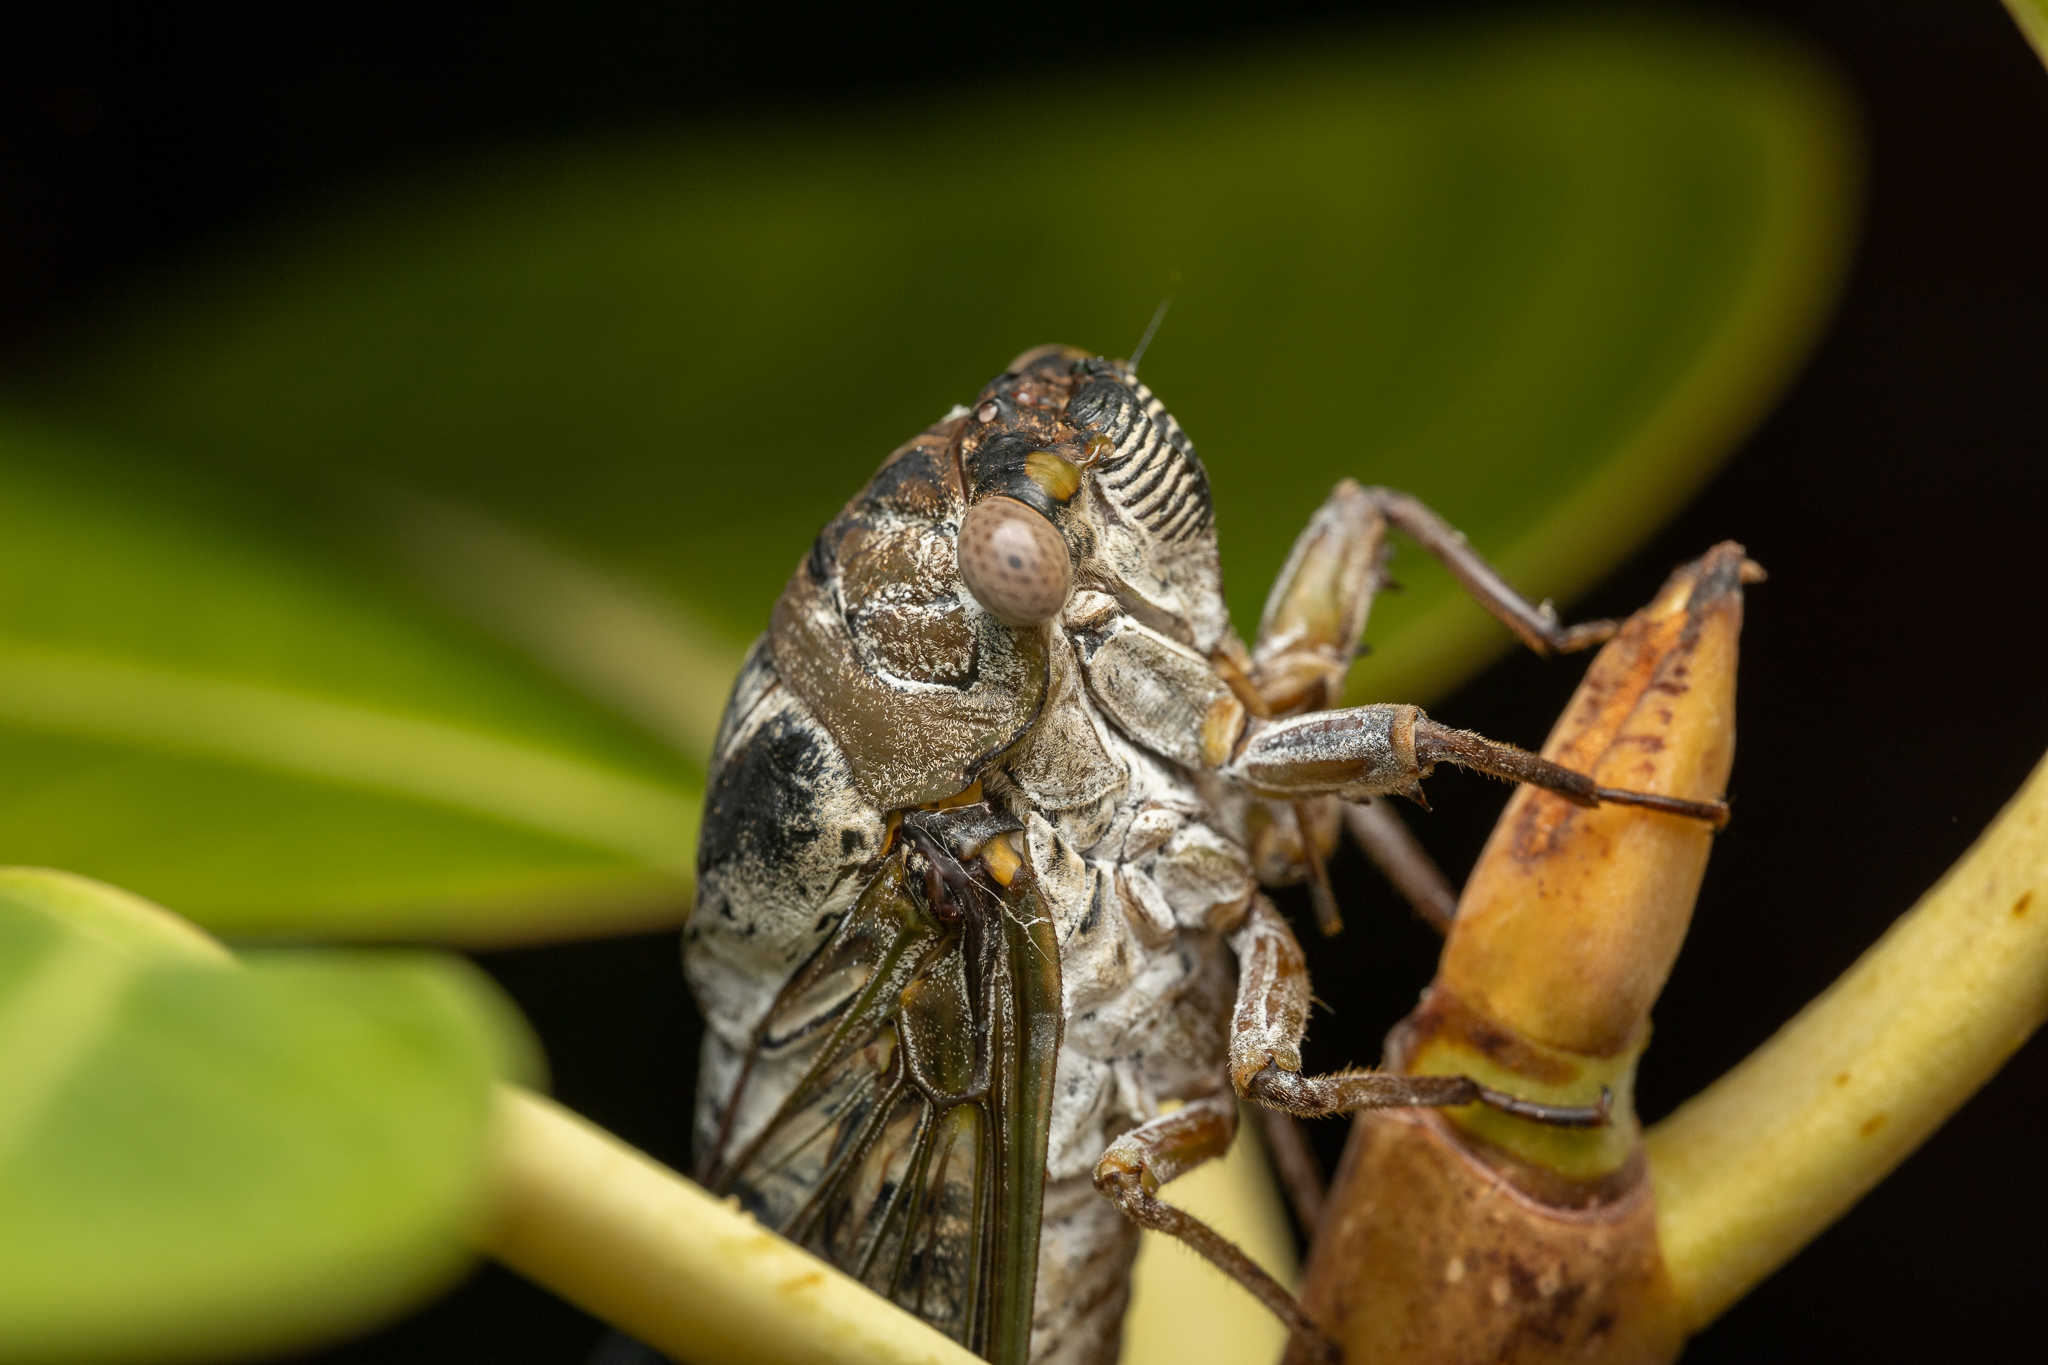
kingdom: Animalia
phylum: Arthropoda
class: Insecta
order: Hemiptera
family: Cicadidae
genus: Diceroprocta
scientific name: Diceroprocta grossa
